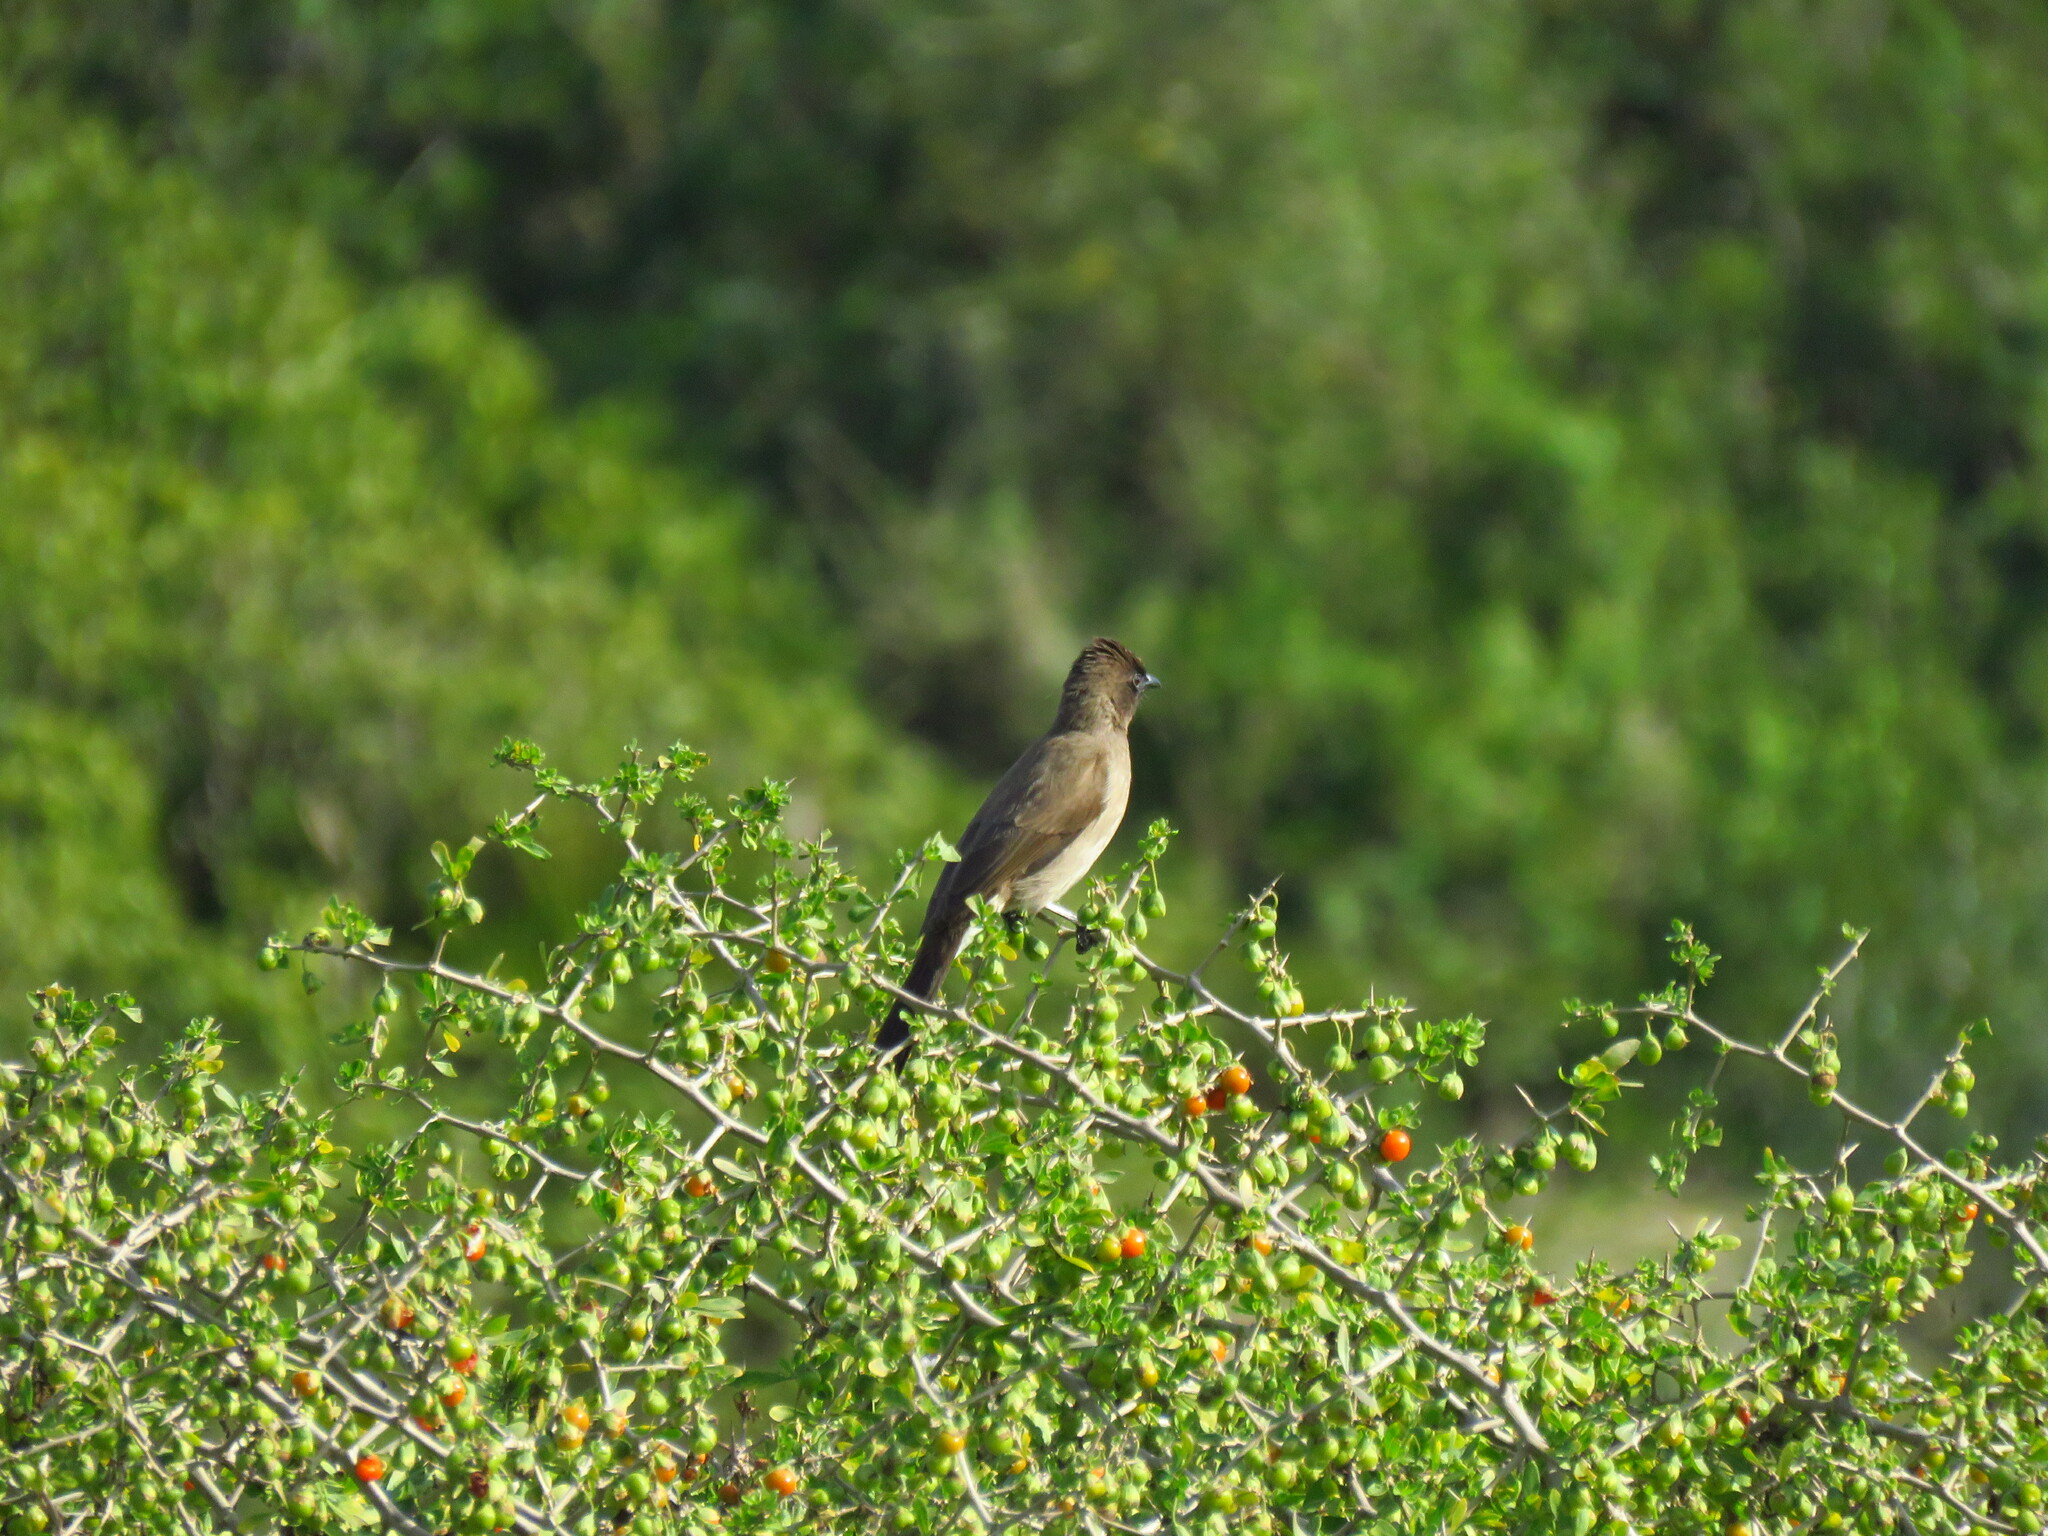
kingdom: Animalia
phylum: Chordata
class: Aves
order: Passeriformes
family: Pycnonotidae
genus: Pycnonotus
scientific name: Pycnonotus barbatus
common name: Common bulbul
